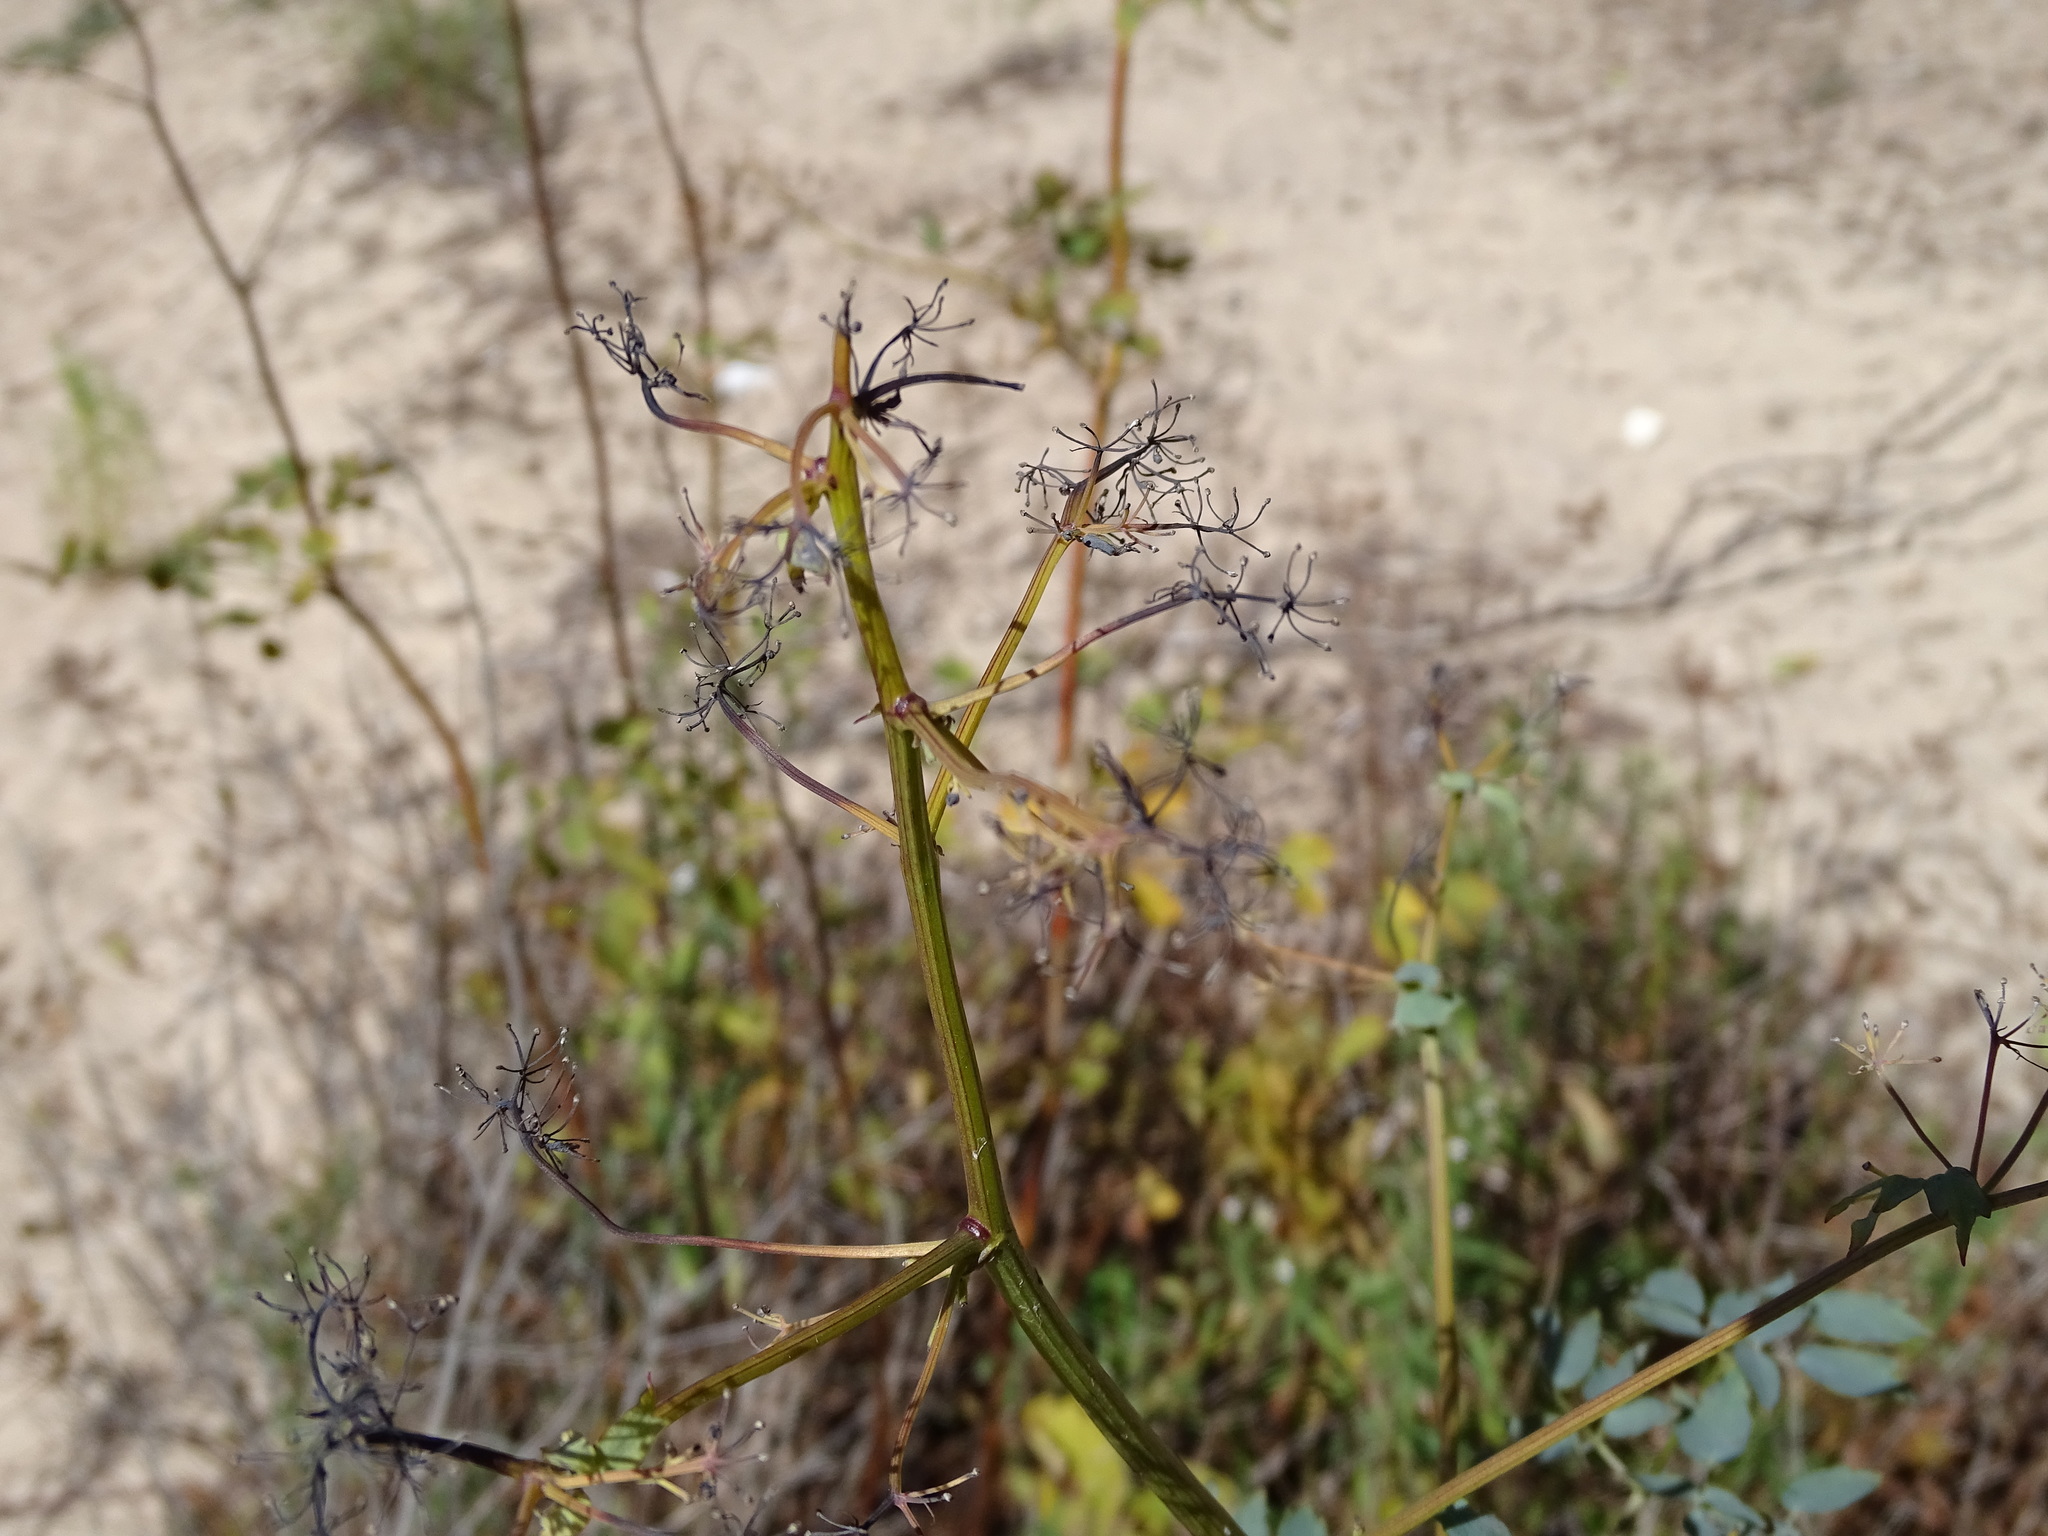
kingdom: Plantae
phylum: Tracheophyta
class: Magnoliopsida
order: Ranunculales
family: Ranunculaceae
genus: Thalictrum
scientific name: Thalictrum pubescens
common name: King-of-the-meadow
